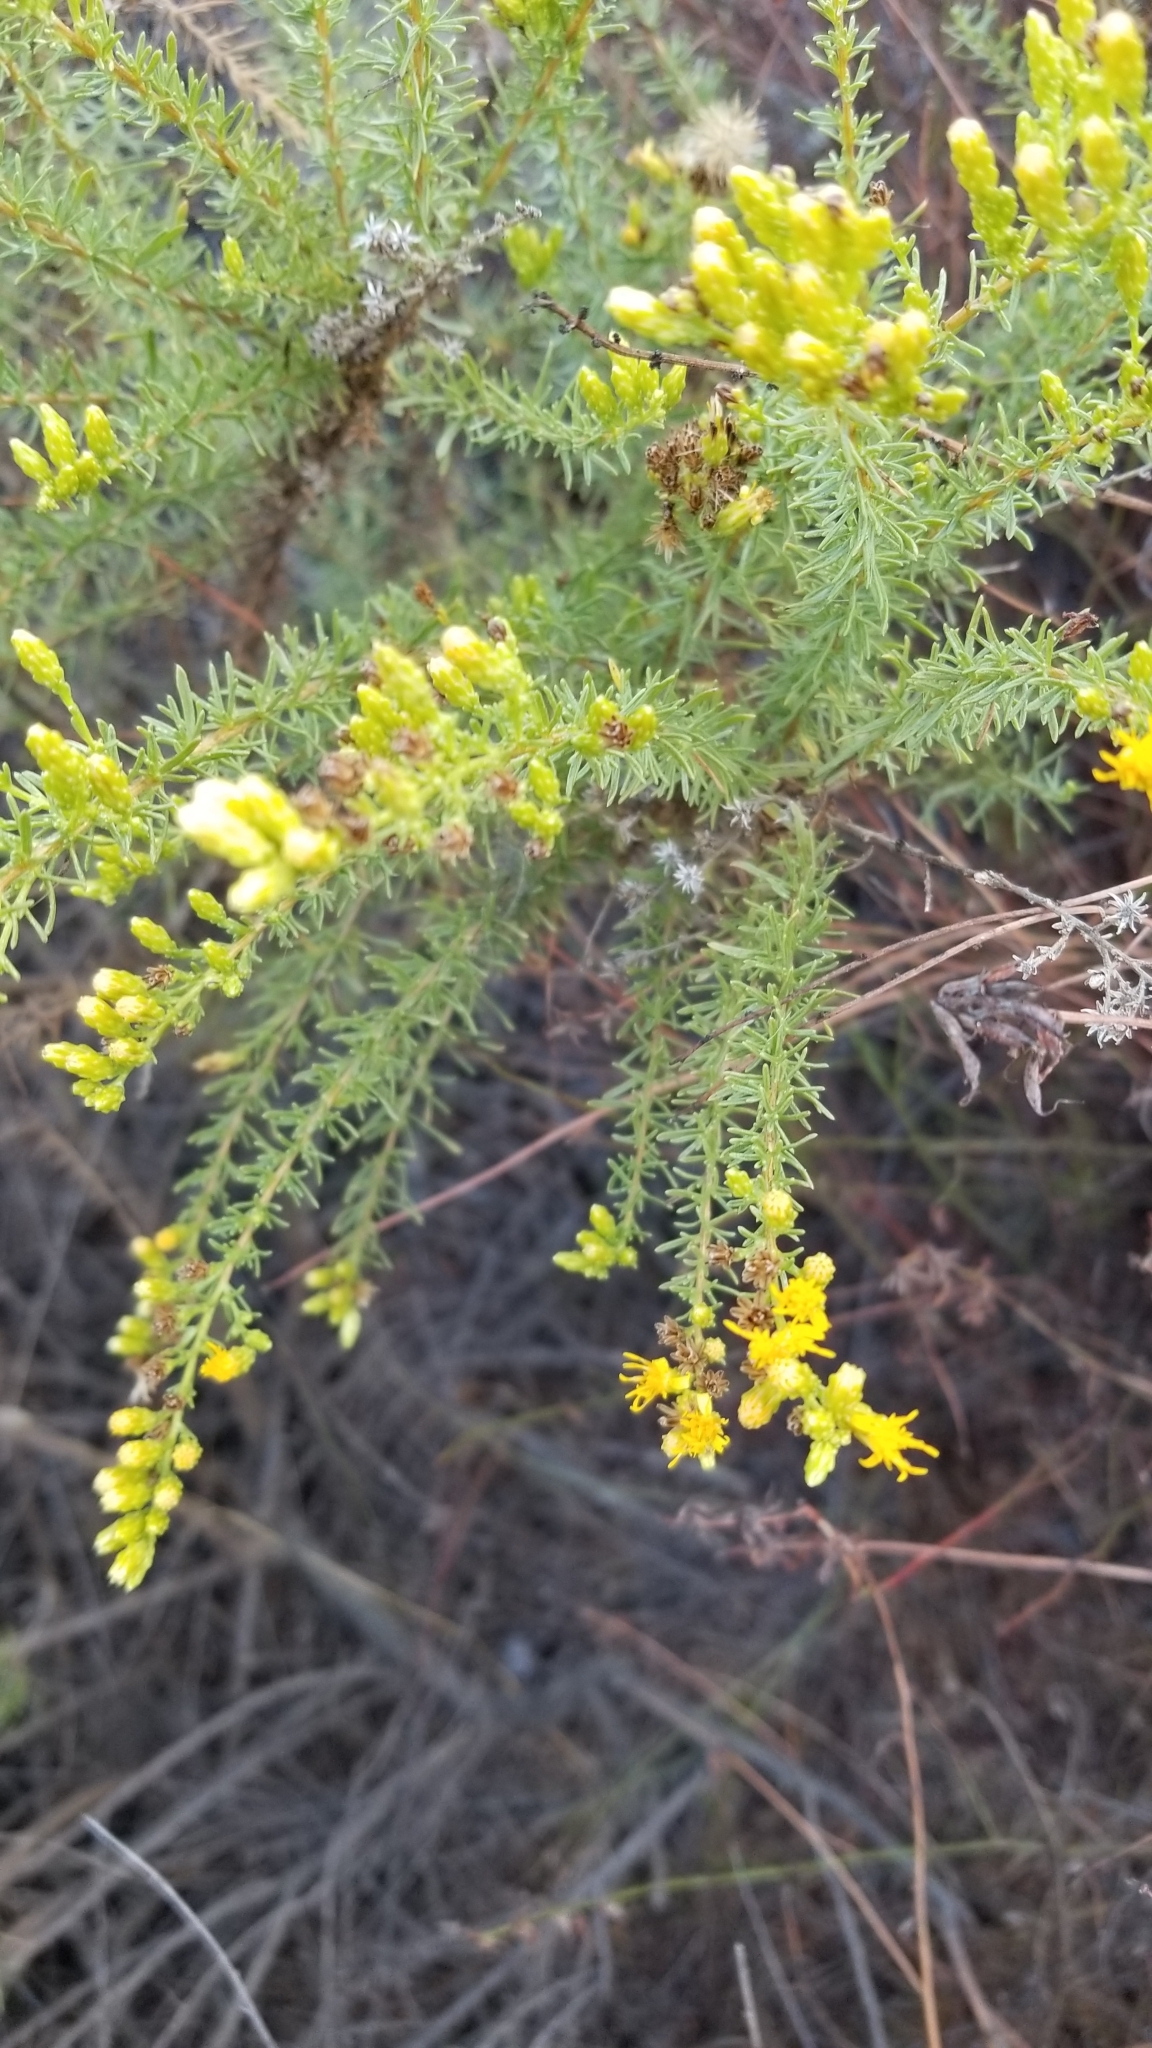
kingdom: Plantae
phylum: Tracheophyta
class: Magnoliopsida
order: Asterales
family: Asteraceae
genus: Ericameria
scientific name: Ericameria palmeri
